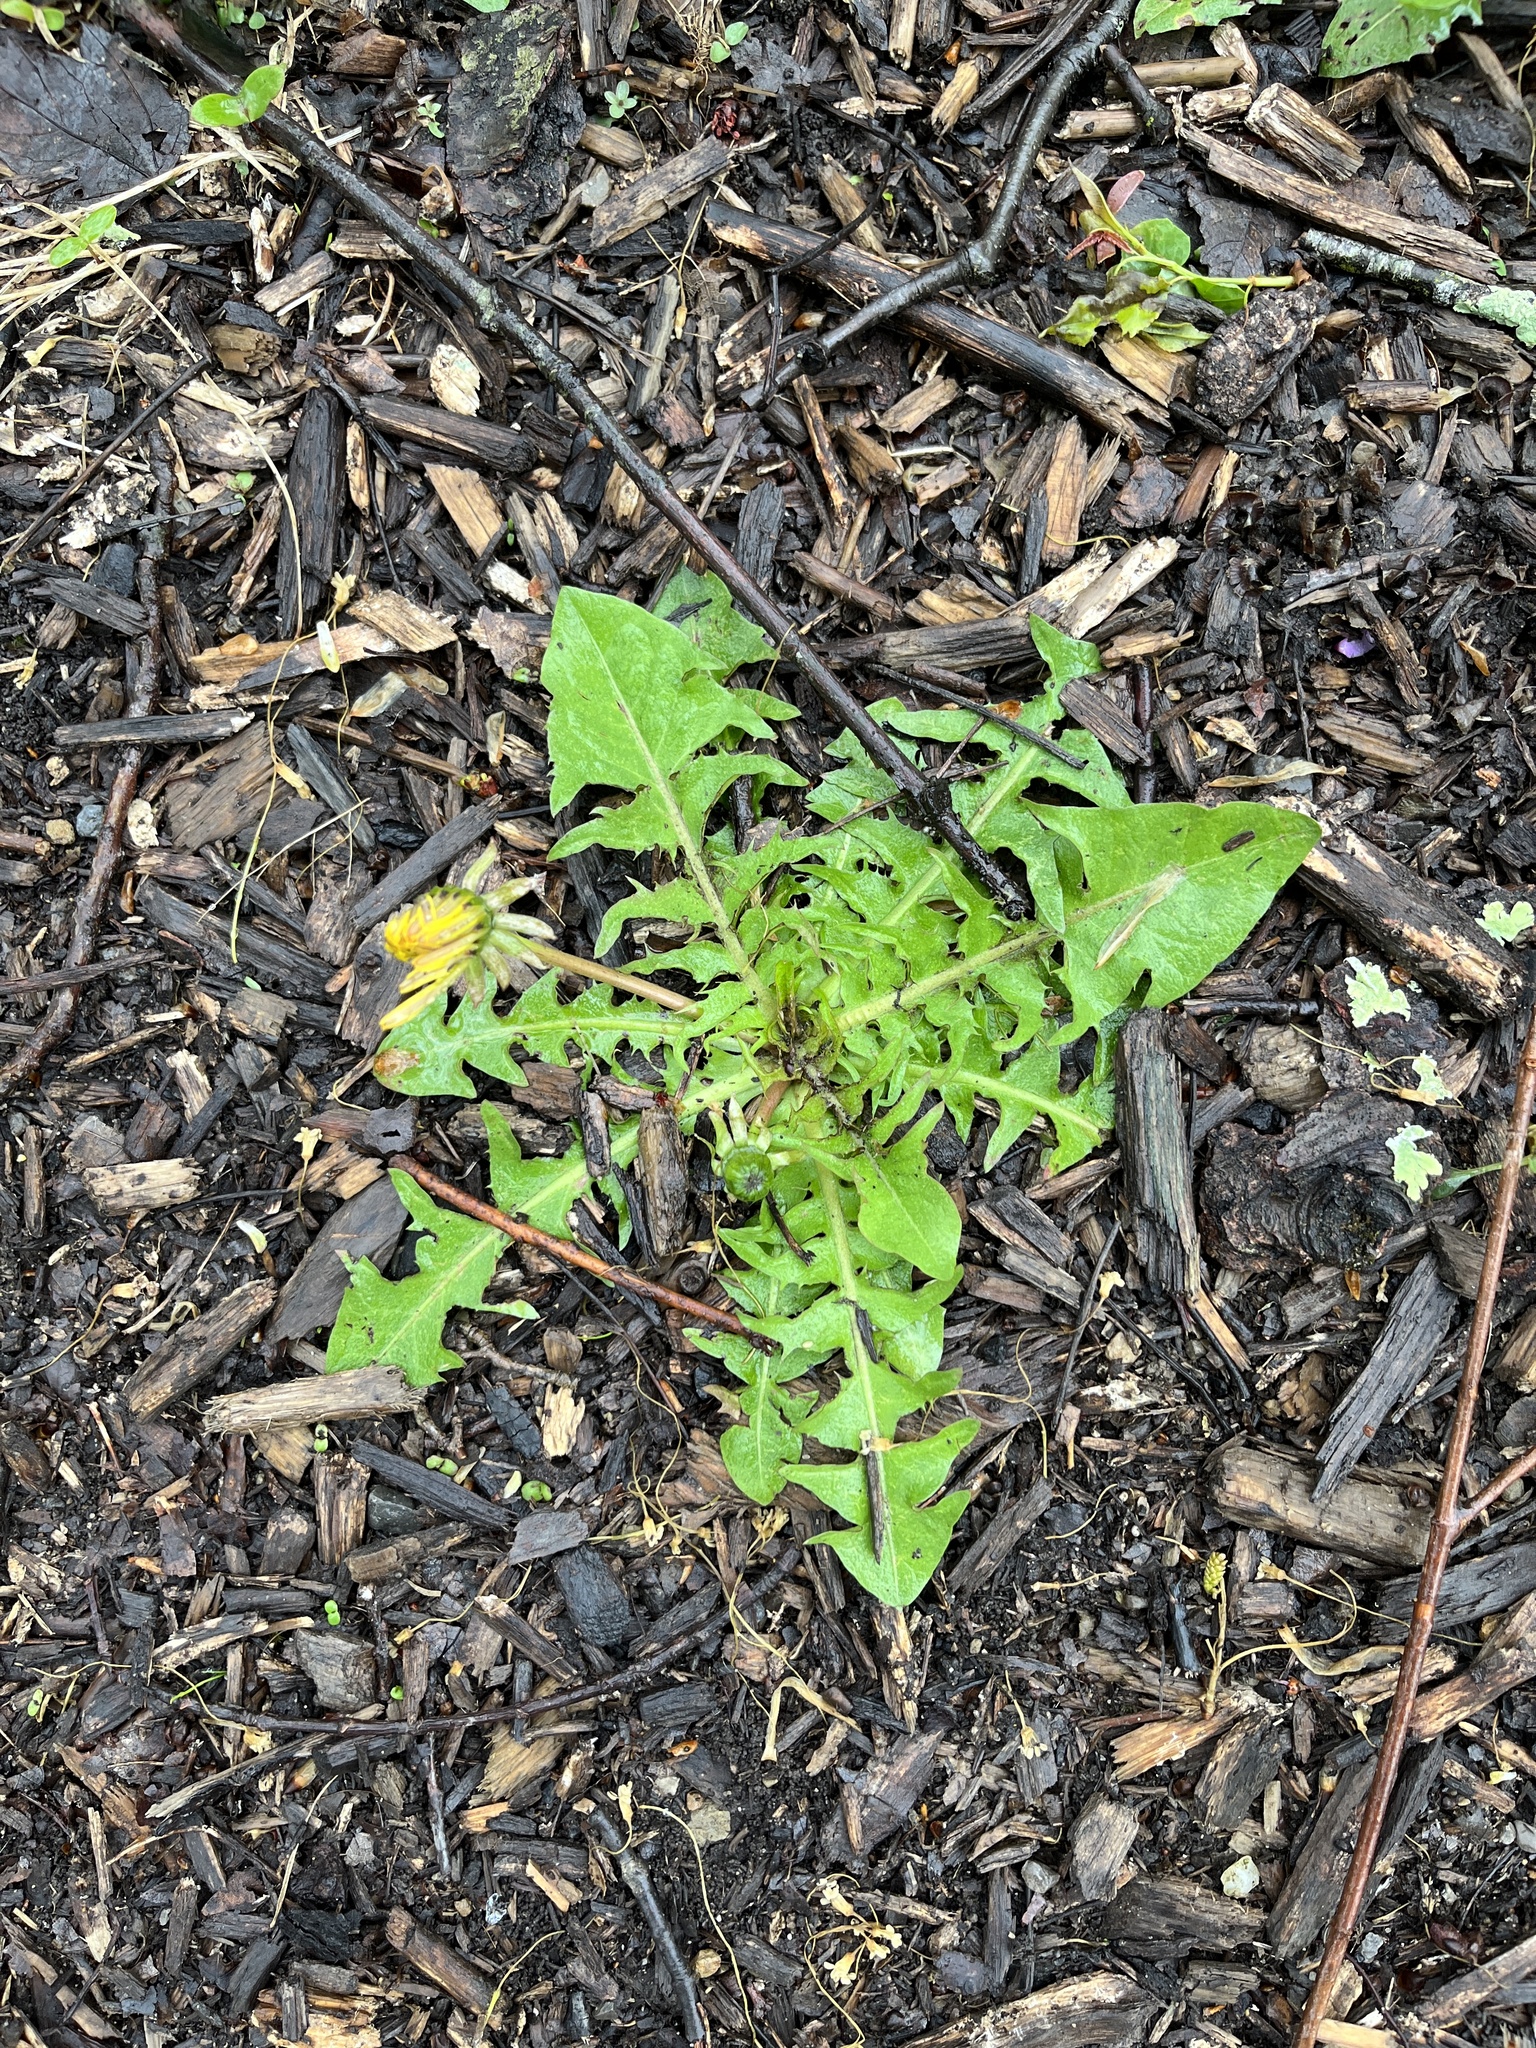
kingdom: Plantae
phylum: Tracheophyta
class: Magnoliopsida
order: Asterales
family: Asteraceae
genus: Taraxacum
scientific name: Taraxacum officinale
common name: Common dandelion
